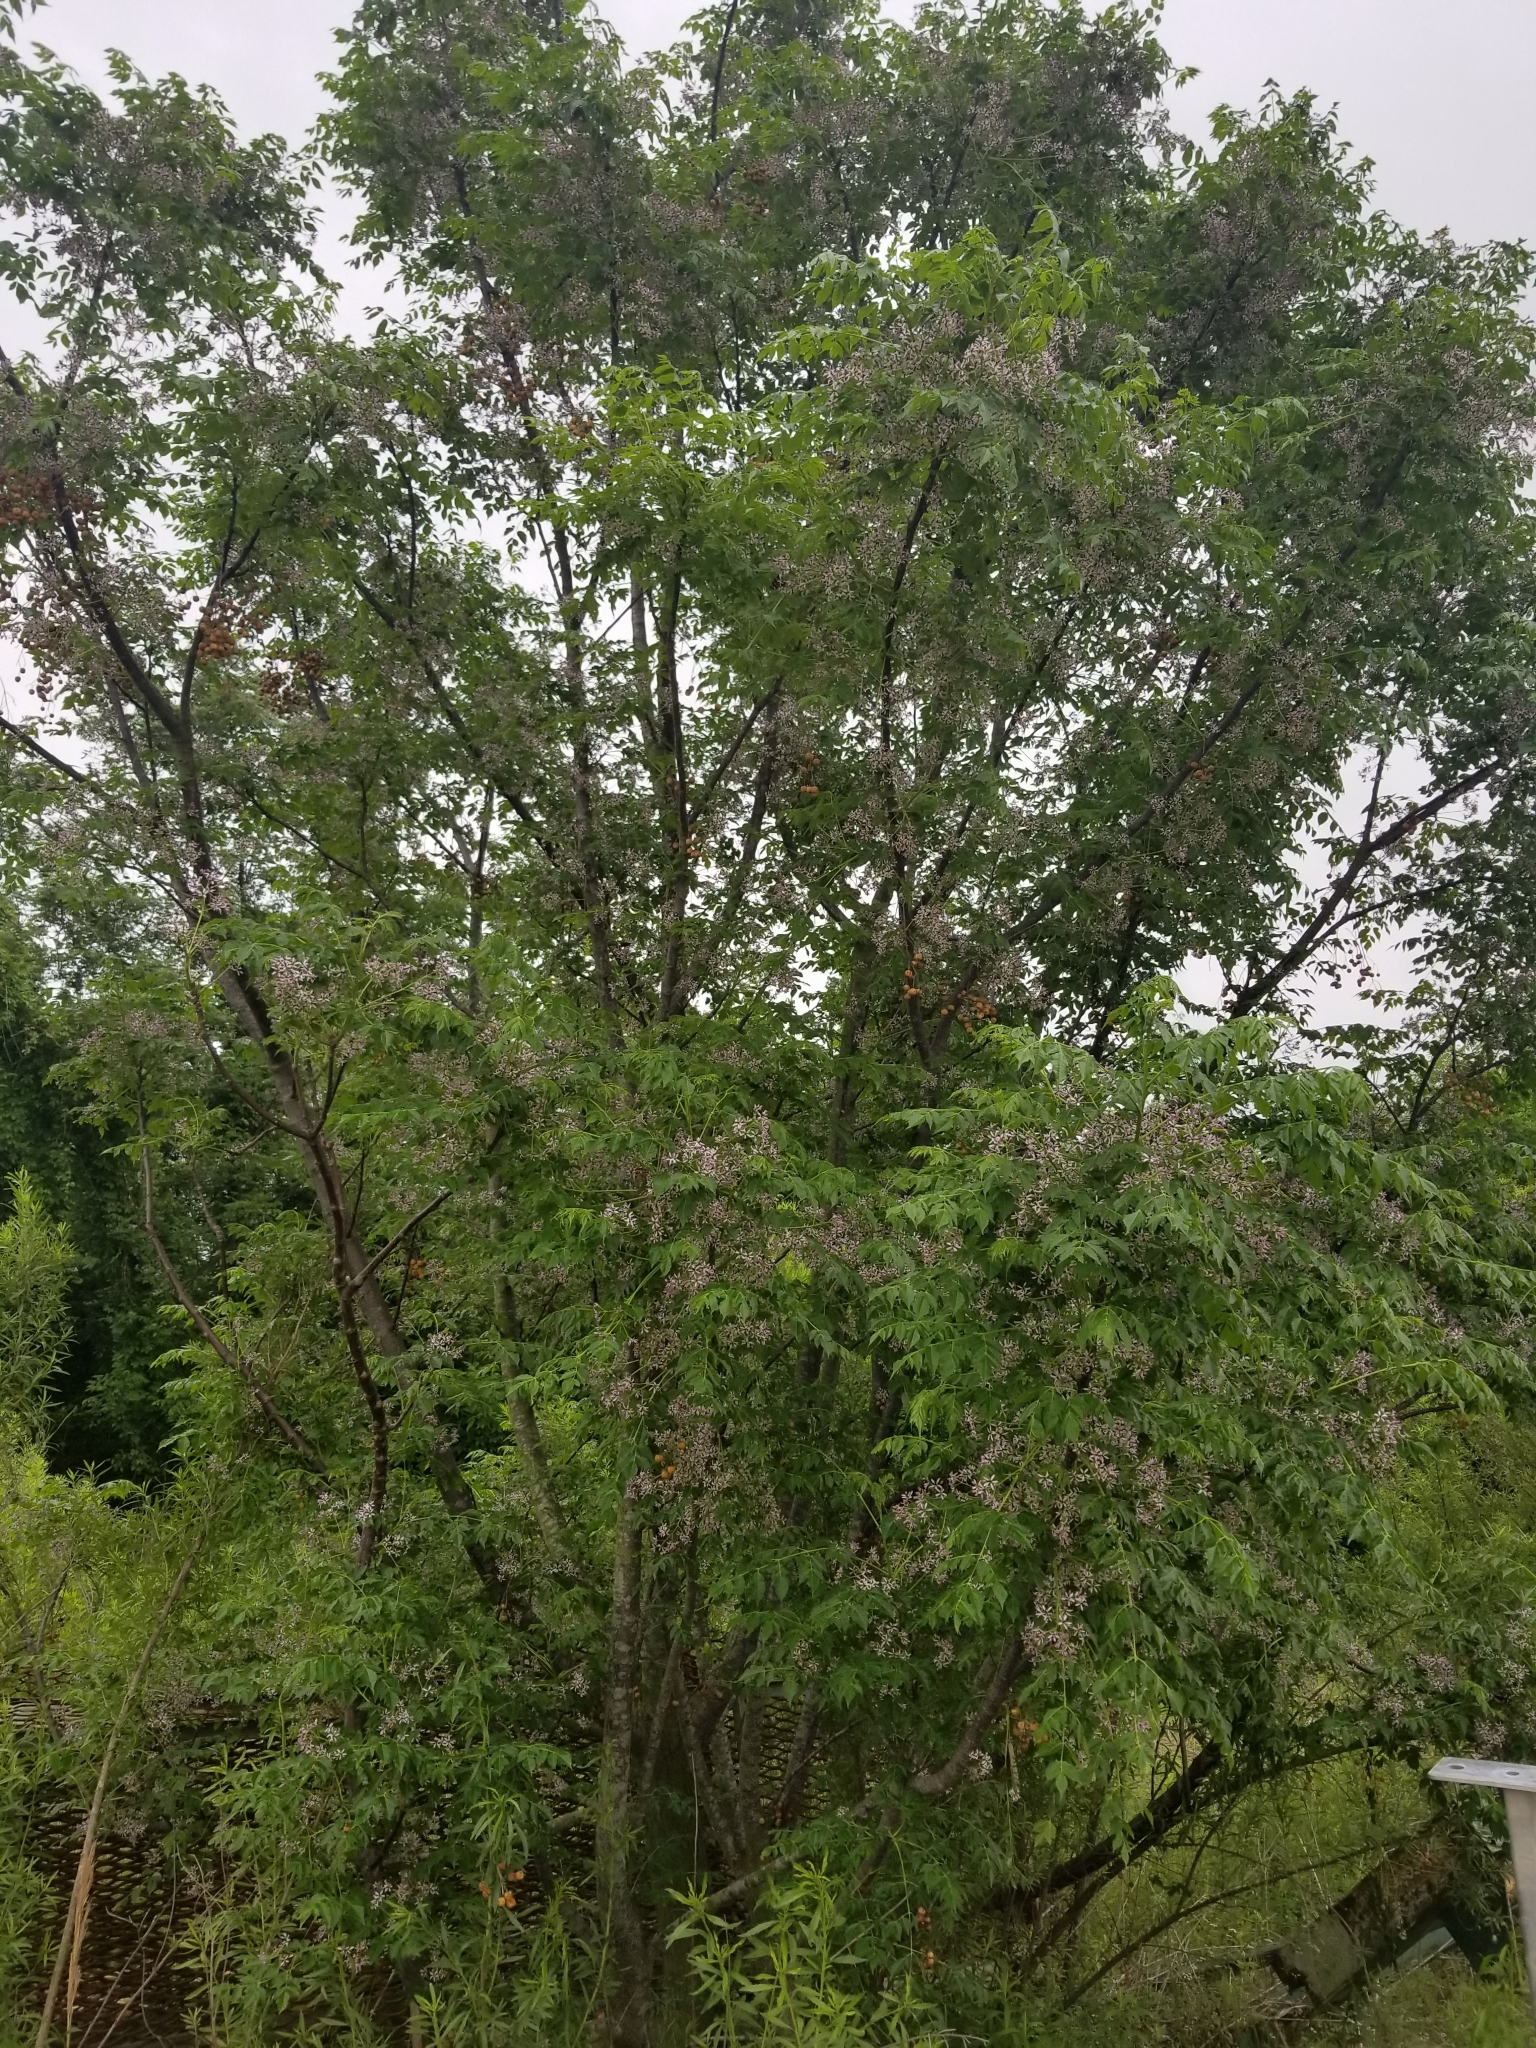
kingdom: Plantae
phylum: Tracheophyta
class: Magnoliopsida
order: Sapindales
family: Meliaceae
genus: Melia
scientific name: Melia azedarach
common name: Chinaberrytree
